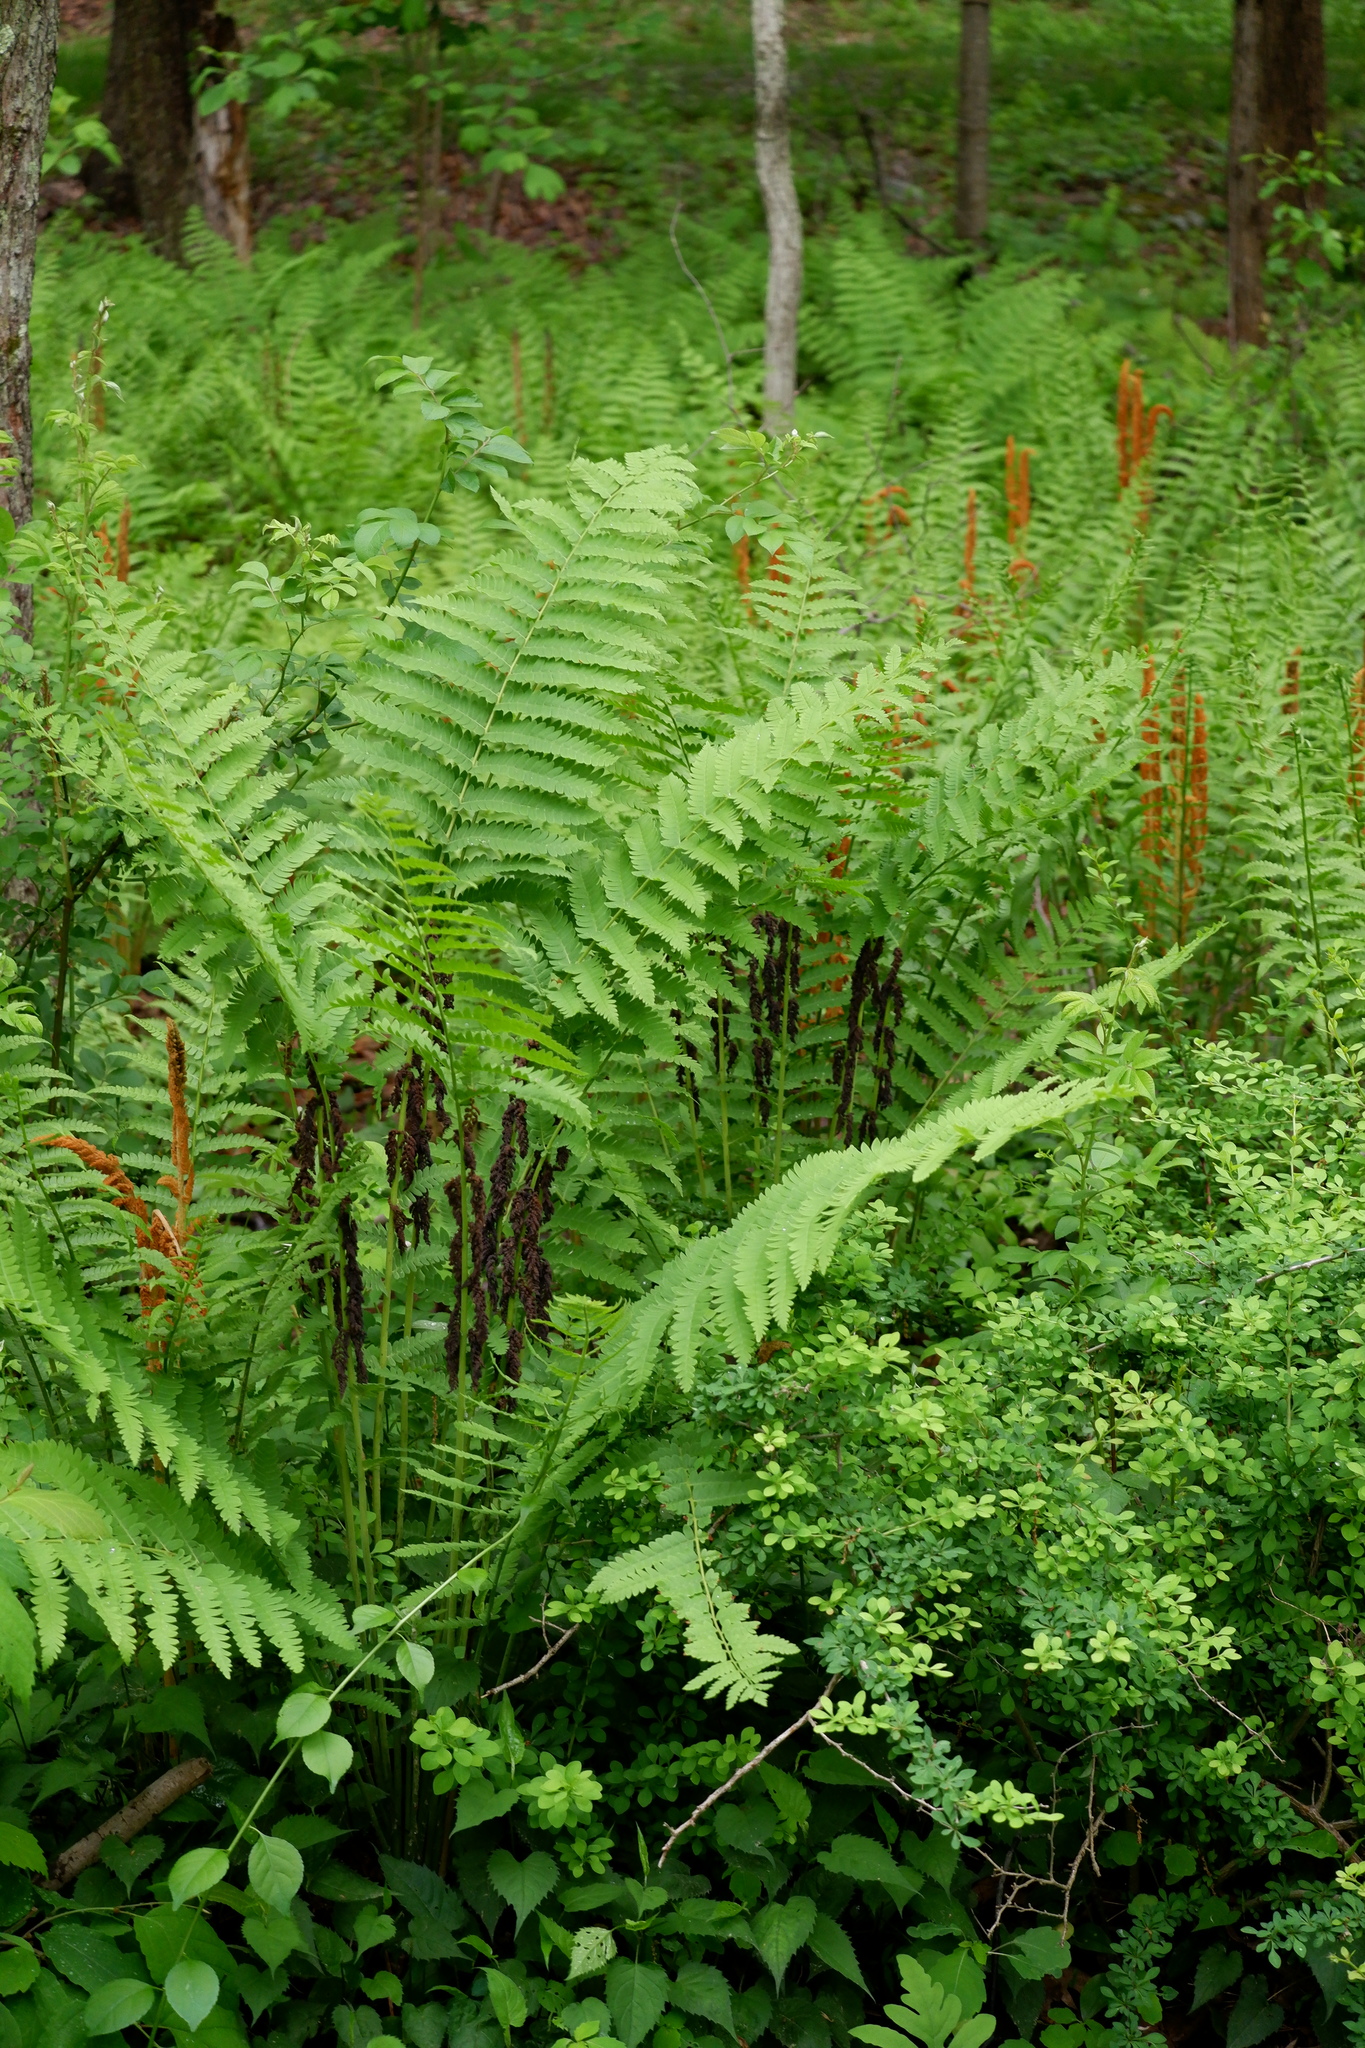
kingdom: Plantae
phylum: Tracheophyta
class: Polypodiopsida
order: Osmundales
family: Osmundaceae
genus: Claytosmunda
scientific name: Claytosmunda claytoniana
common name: Clayton's fern
